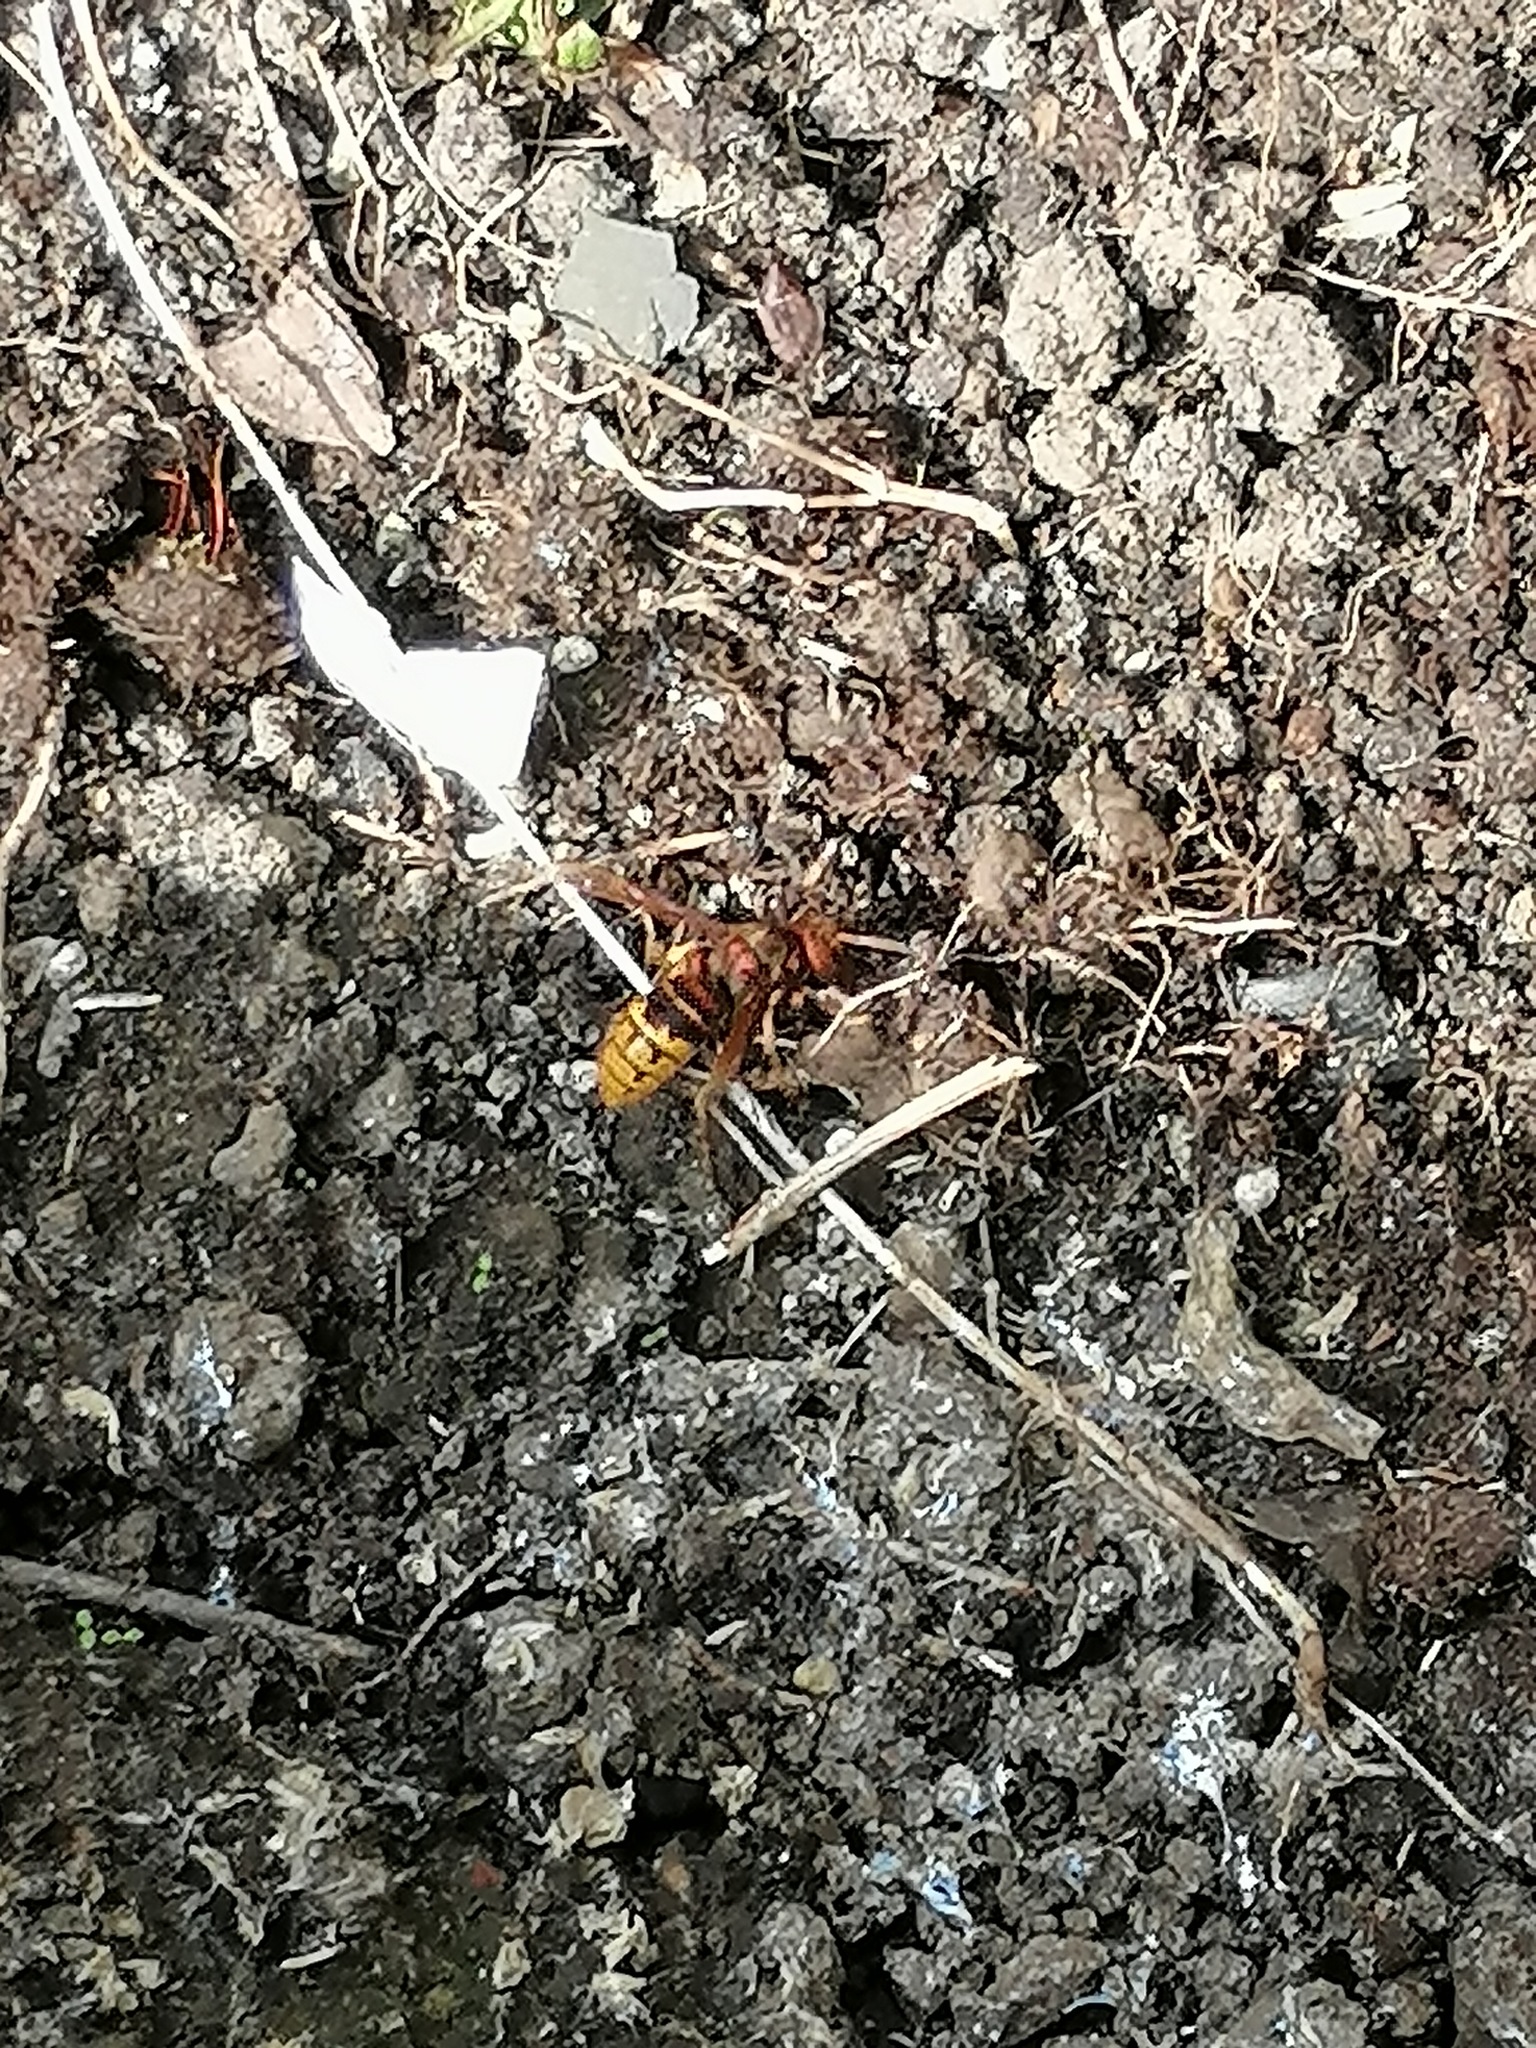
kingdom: Animalia
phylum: Arthropoda
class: Insecta
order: Hymenoptera
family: Vespidae
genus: Vespa
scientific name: Vespa crabro
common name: Hornet
